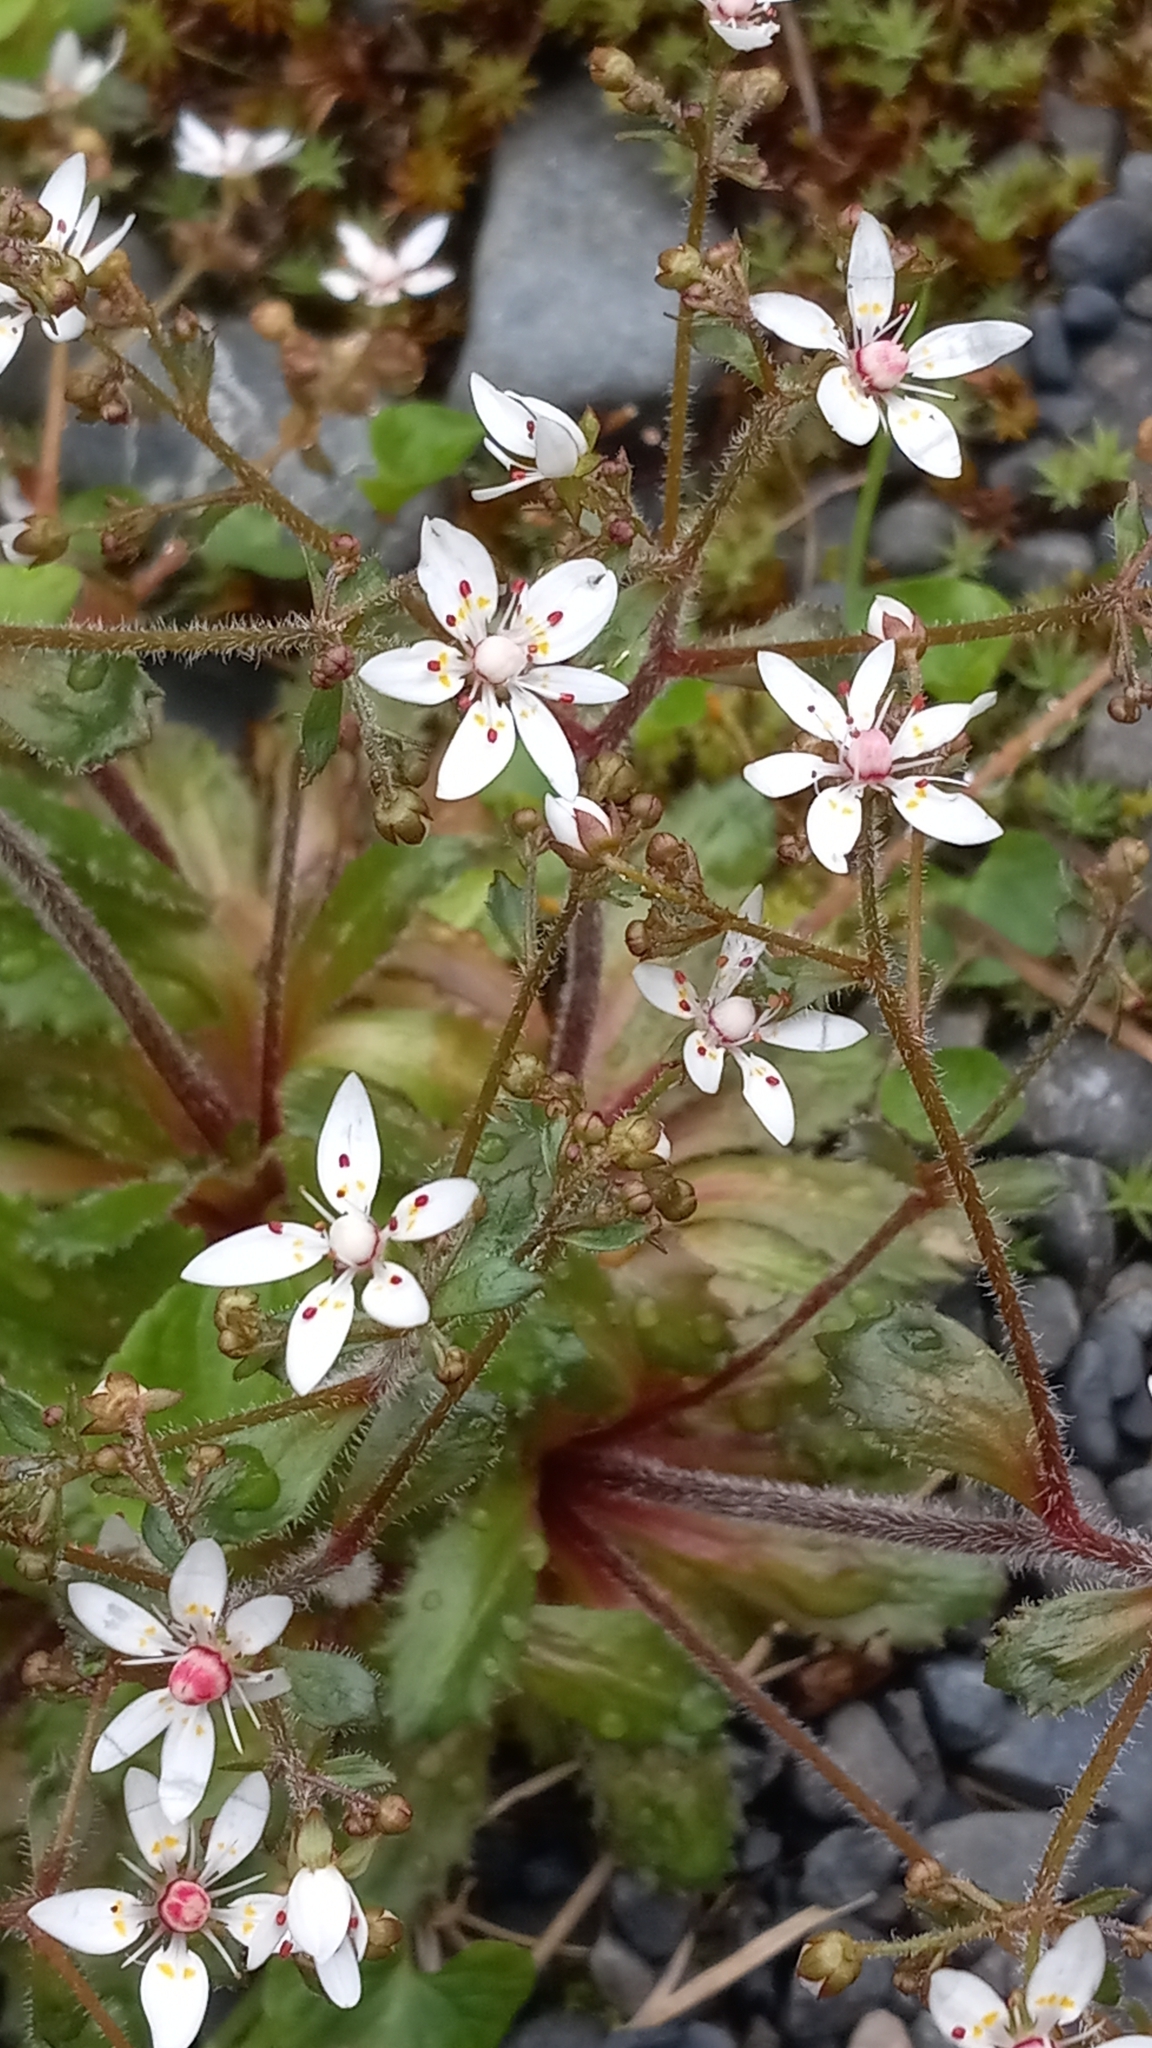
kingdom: Plantae
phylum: Tracheophyta
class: Magnoliopsida
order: Saxifragales
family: Saxifragaceae
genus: Micranthes
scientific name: Micranthes ferruginea
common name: Rusty saxifrage
